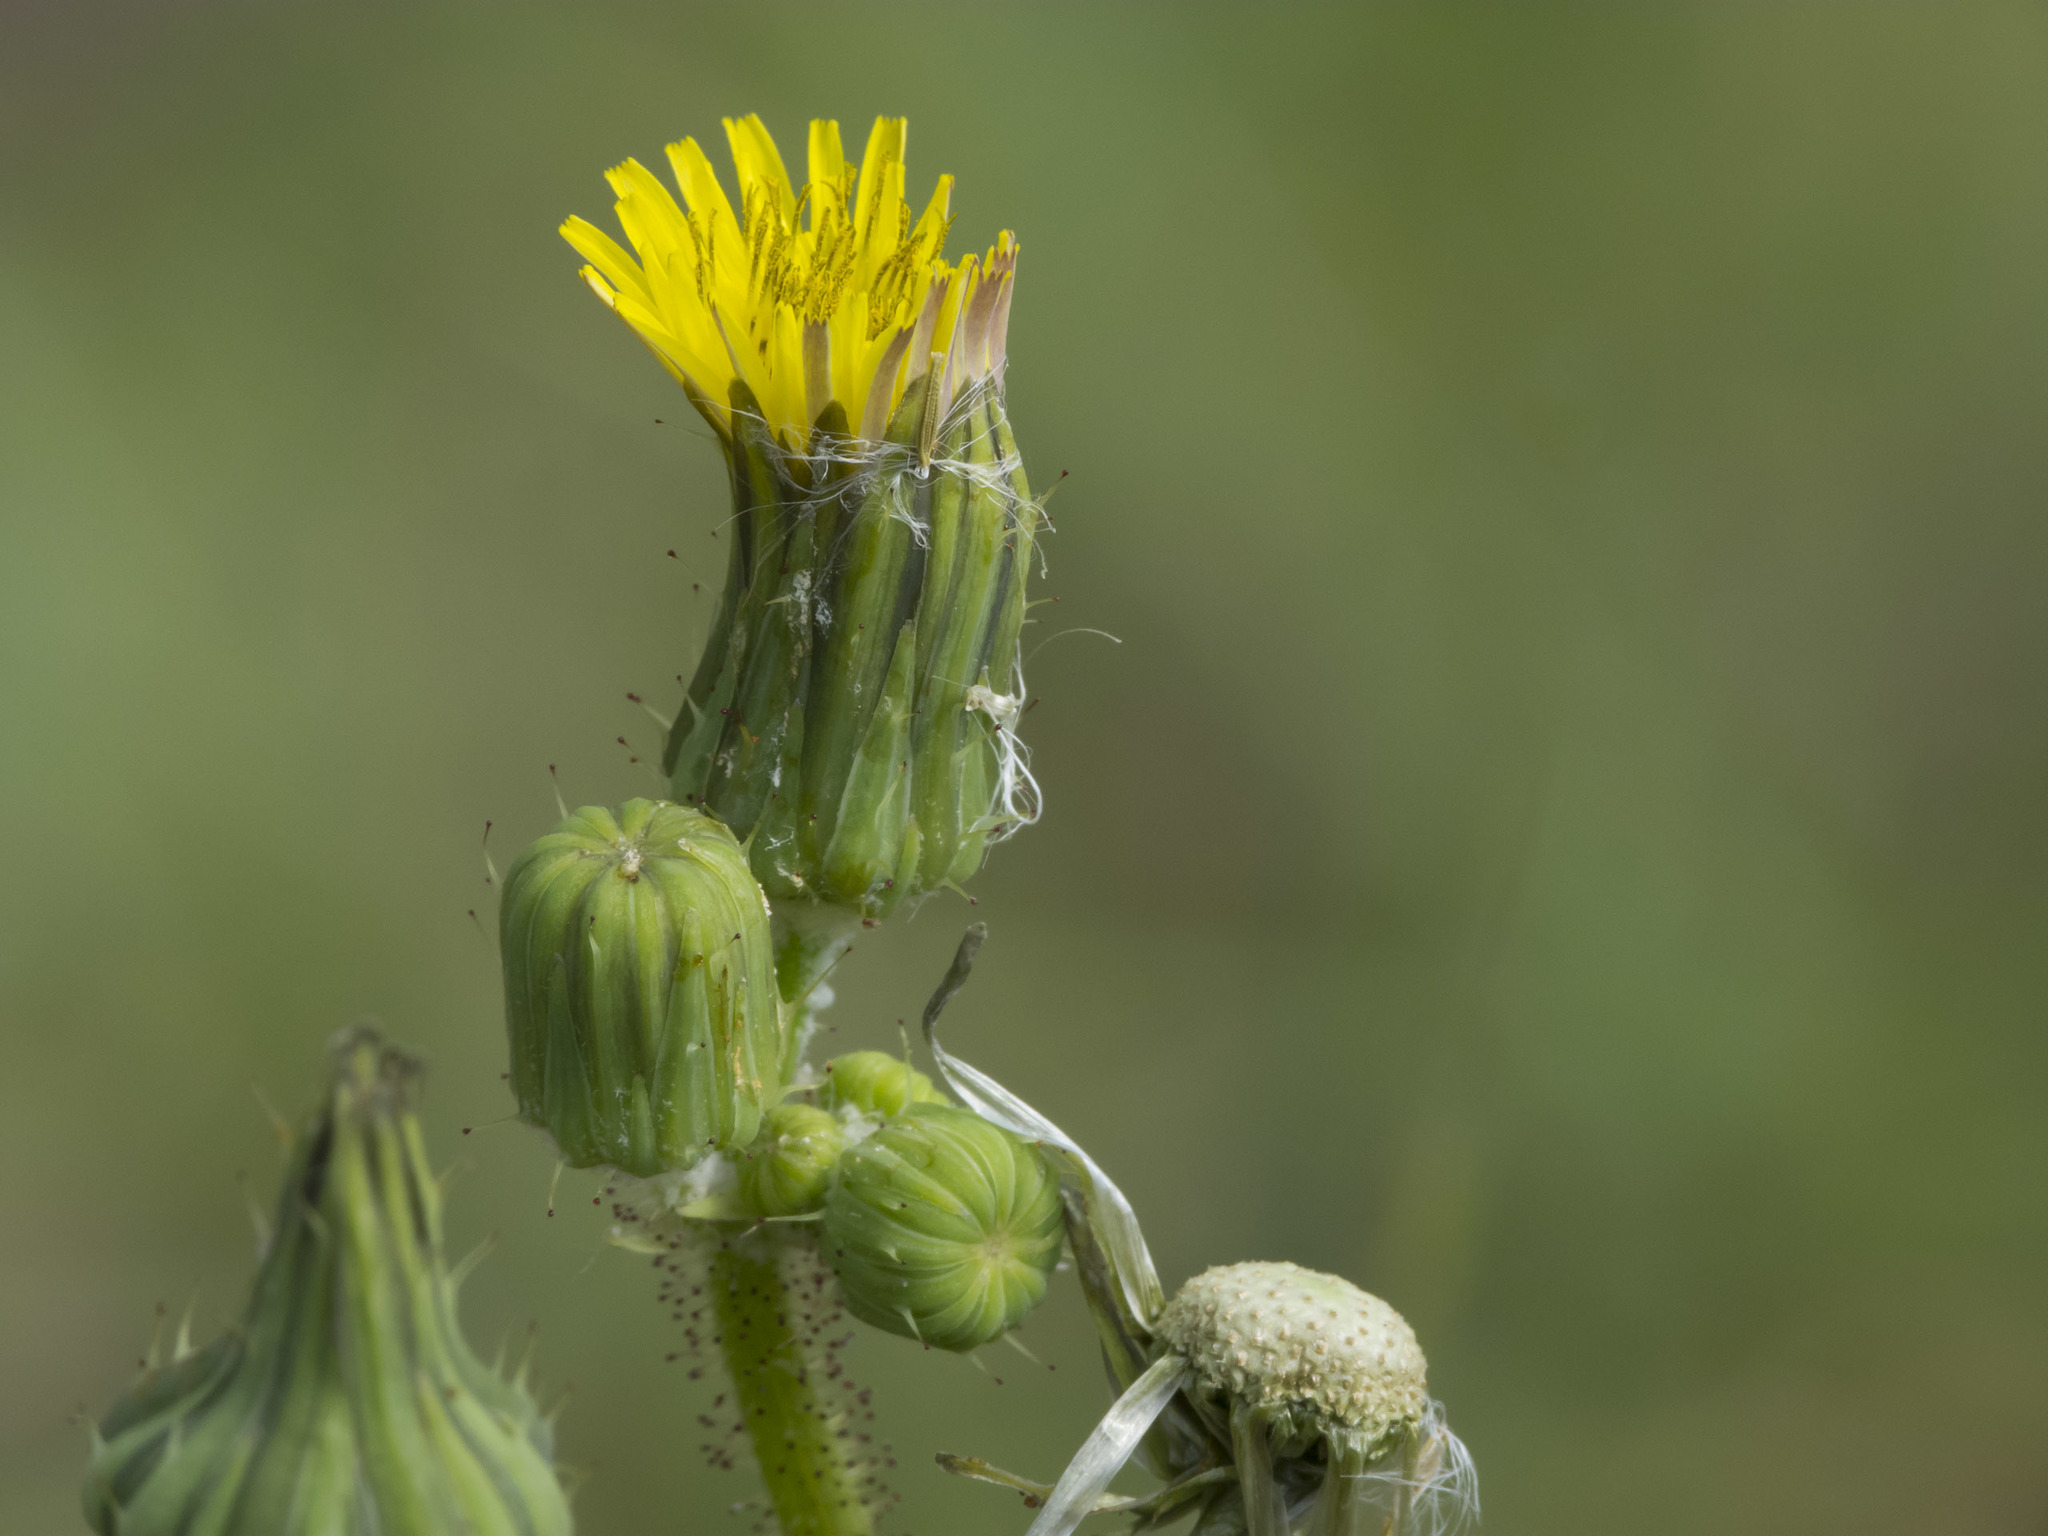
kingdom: Plantae
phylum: Tracheophyta
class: Magnoliopsida
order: Asterales
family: Asteraceae
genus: Taraxacum
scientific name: Taraxacum officinale
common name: Common dandelion
